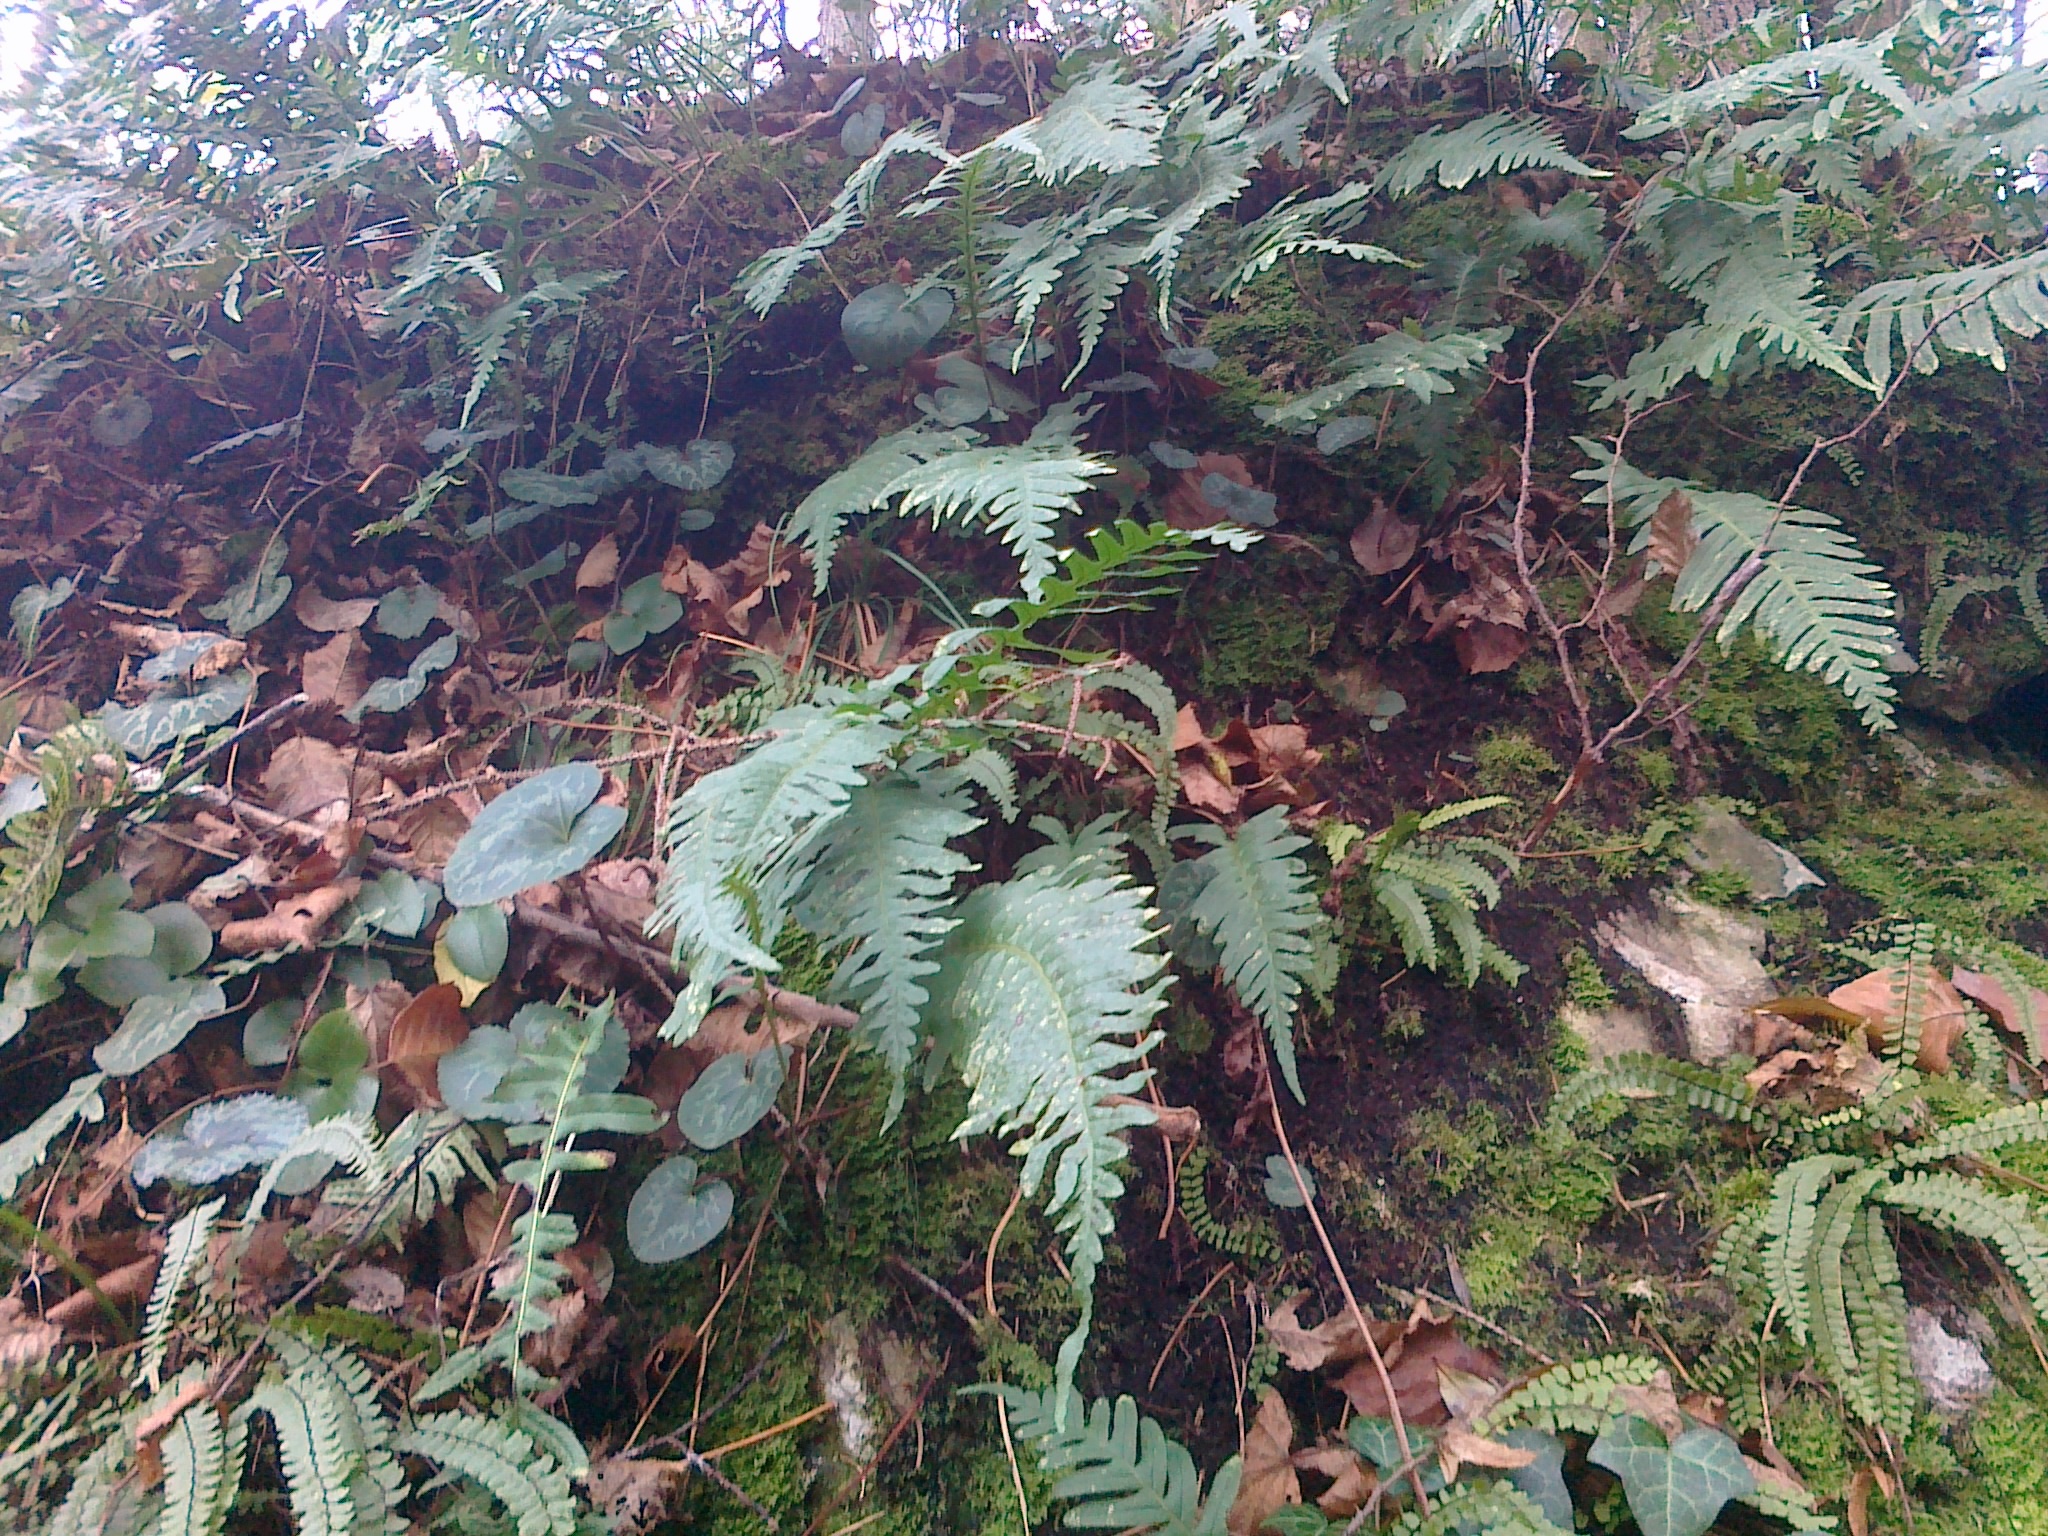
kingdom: Plantae
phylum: Tracheophyta
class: Polypodiopsida
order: Polypodiales
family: Polypodiaceae
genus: Polypodium
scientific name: Polypodium vulgare
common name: Common polypody
